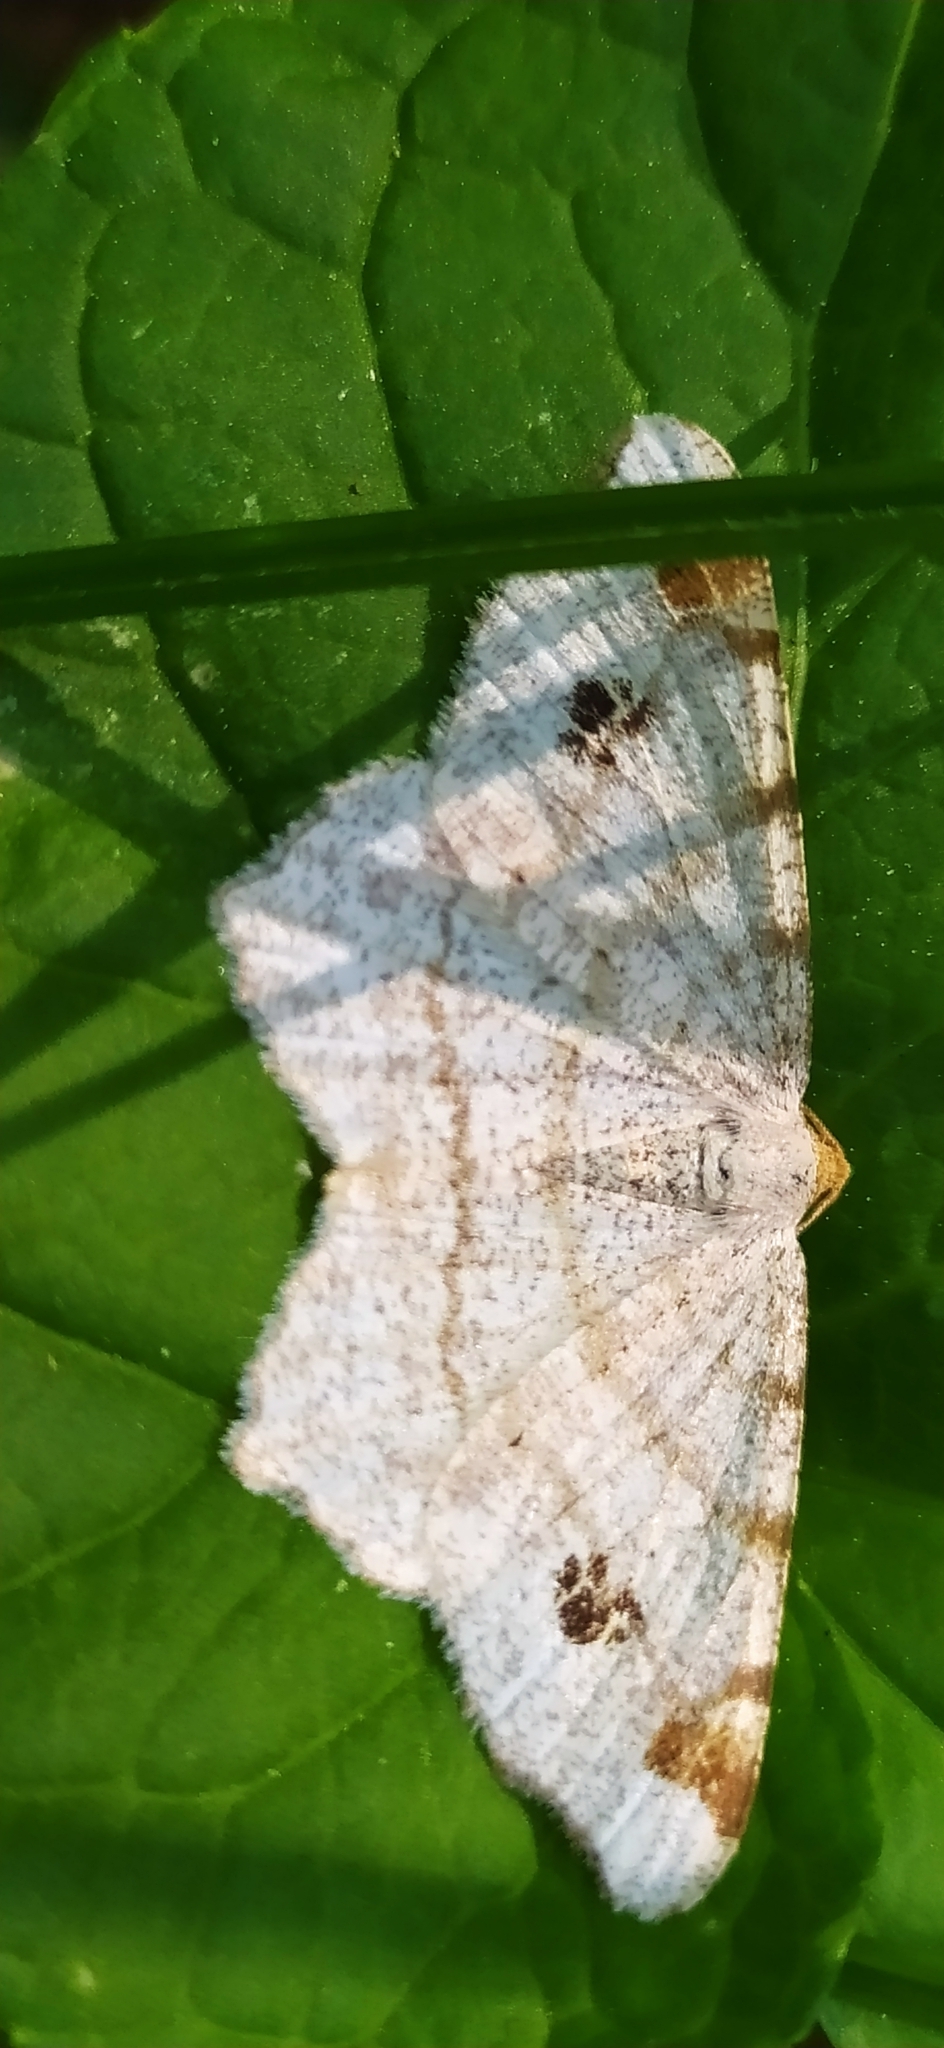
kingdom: Animalia
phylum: Arthropoda
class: Insecta
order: Lepidoptera
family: Geometridae
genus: Macaria
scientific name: Macaria notata
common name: Peacock moth
